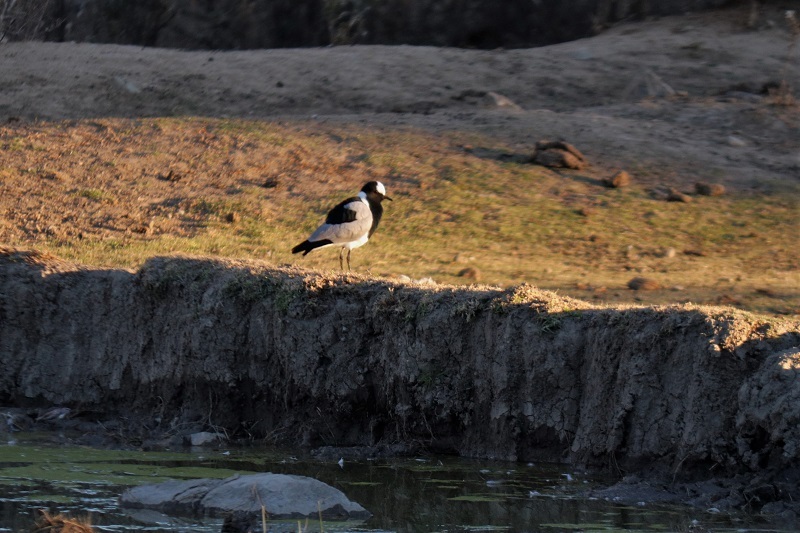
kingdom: Animalia
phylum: Chordata
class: Aves
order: Charadriiformes
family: Charadriidae
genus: Vanellus
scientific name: Vanellus armatus
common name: Blacksmith lapwing
